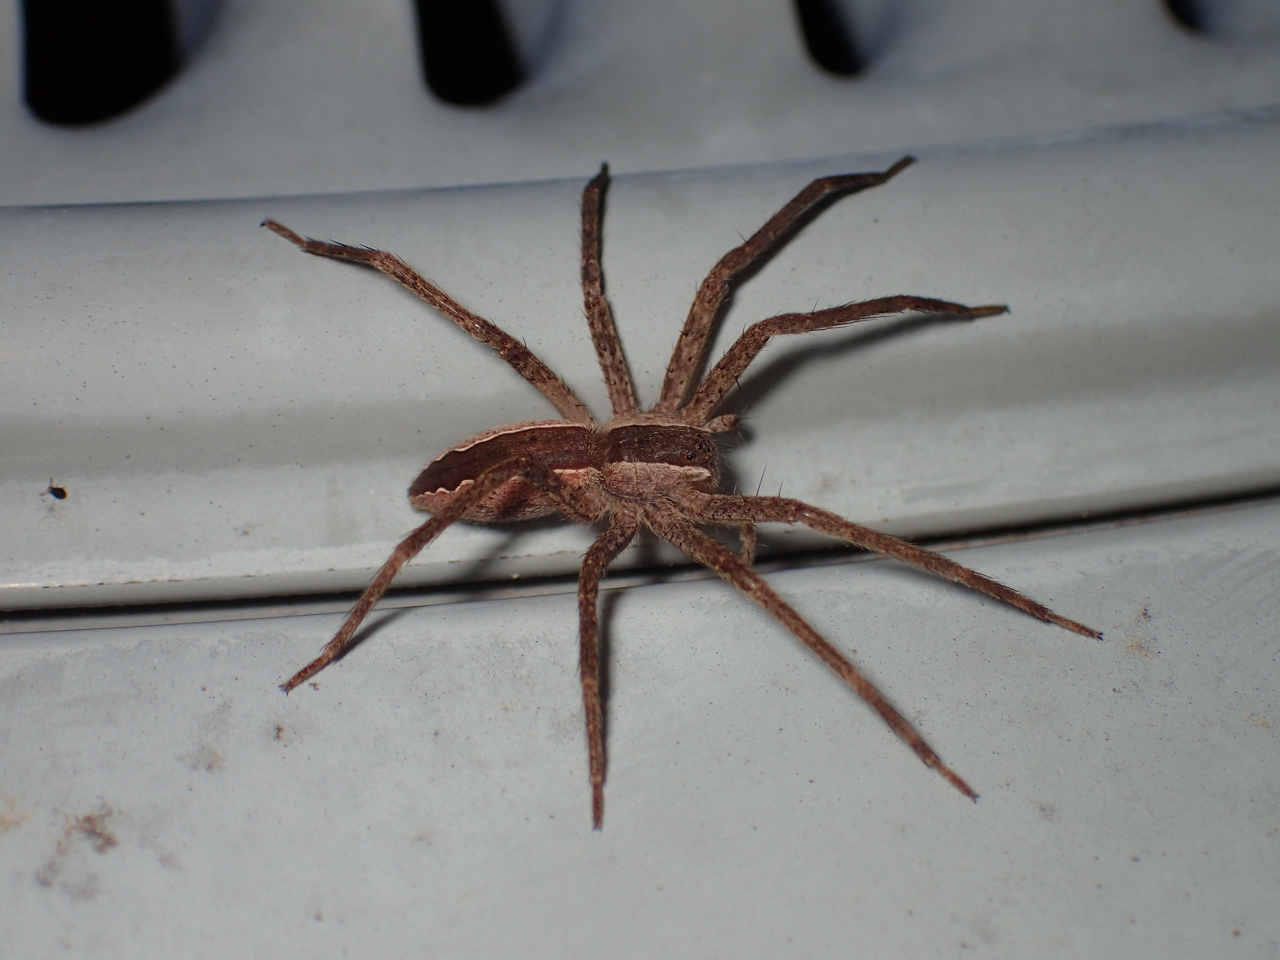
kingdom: Animalia
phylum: Arthropoda
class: Arachnida
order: Araneae
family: Pisauridae
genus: Pisaurina
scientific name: Pisaurina mira
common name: American nursery web spider
